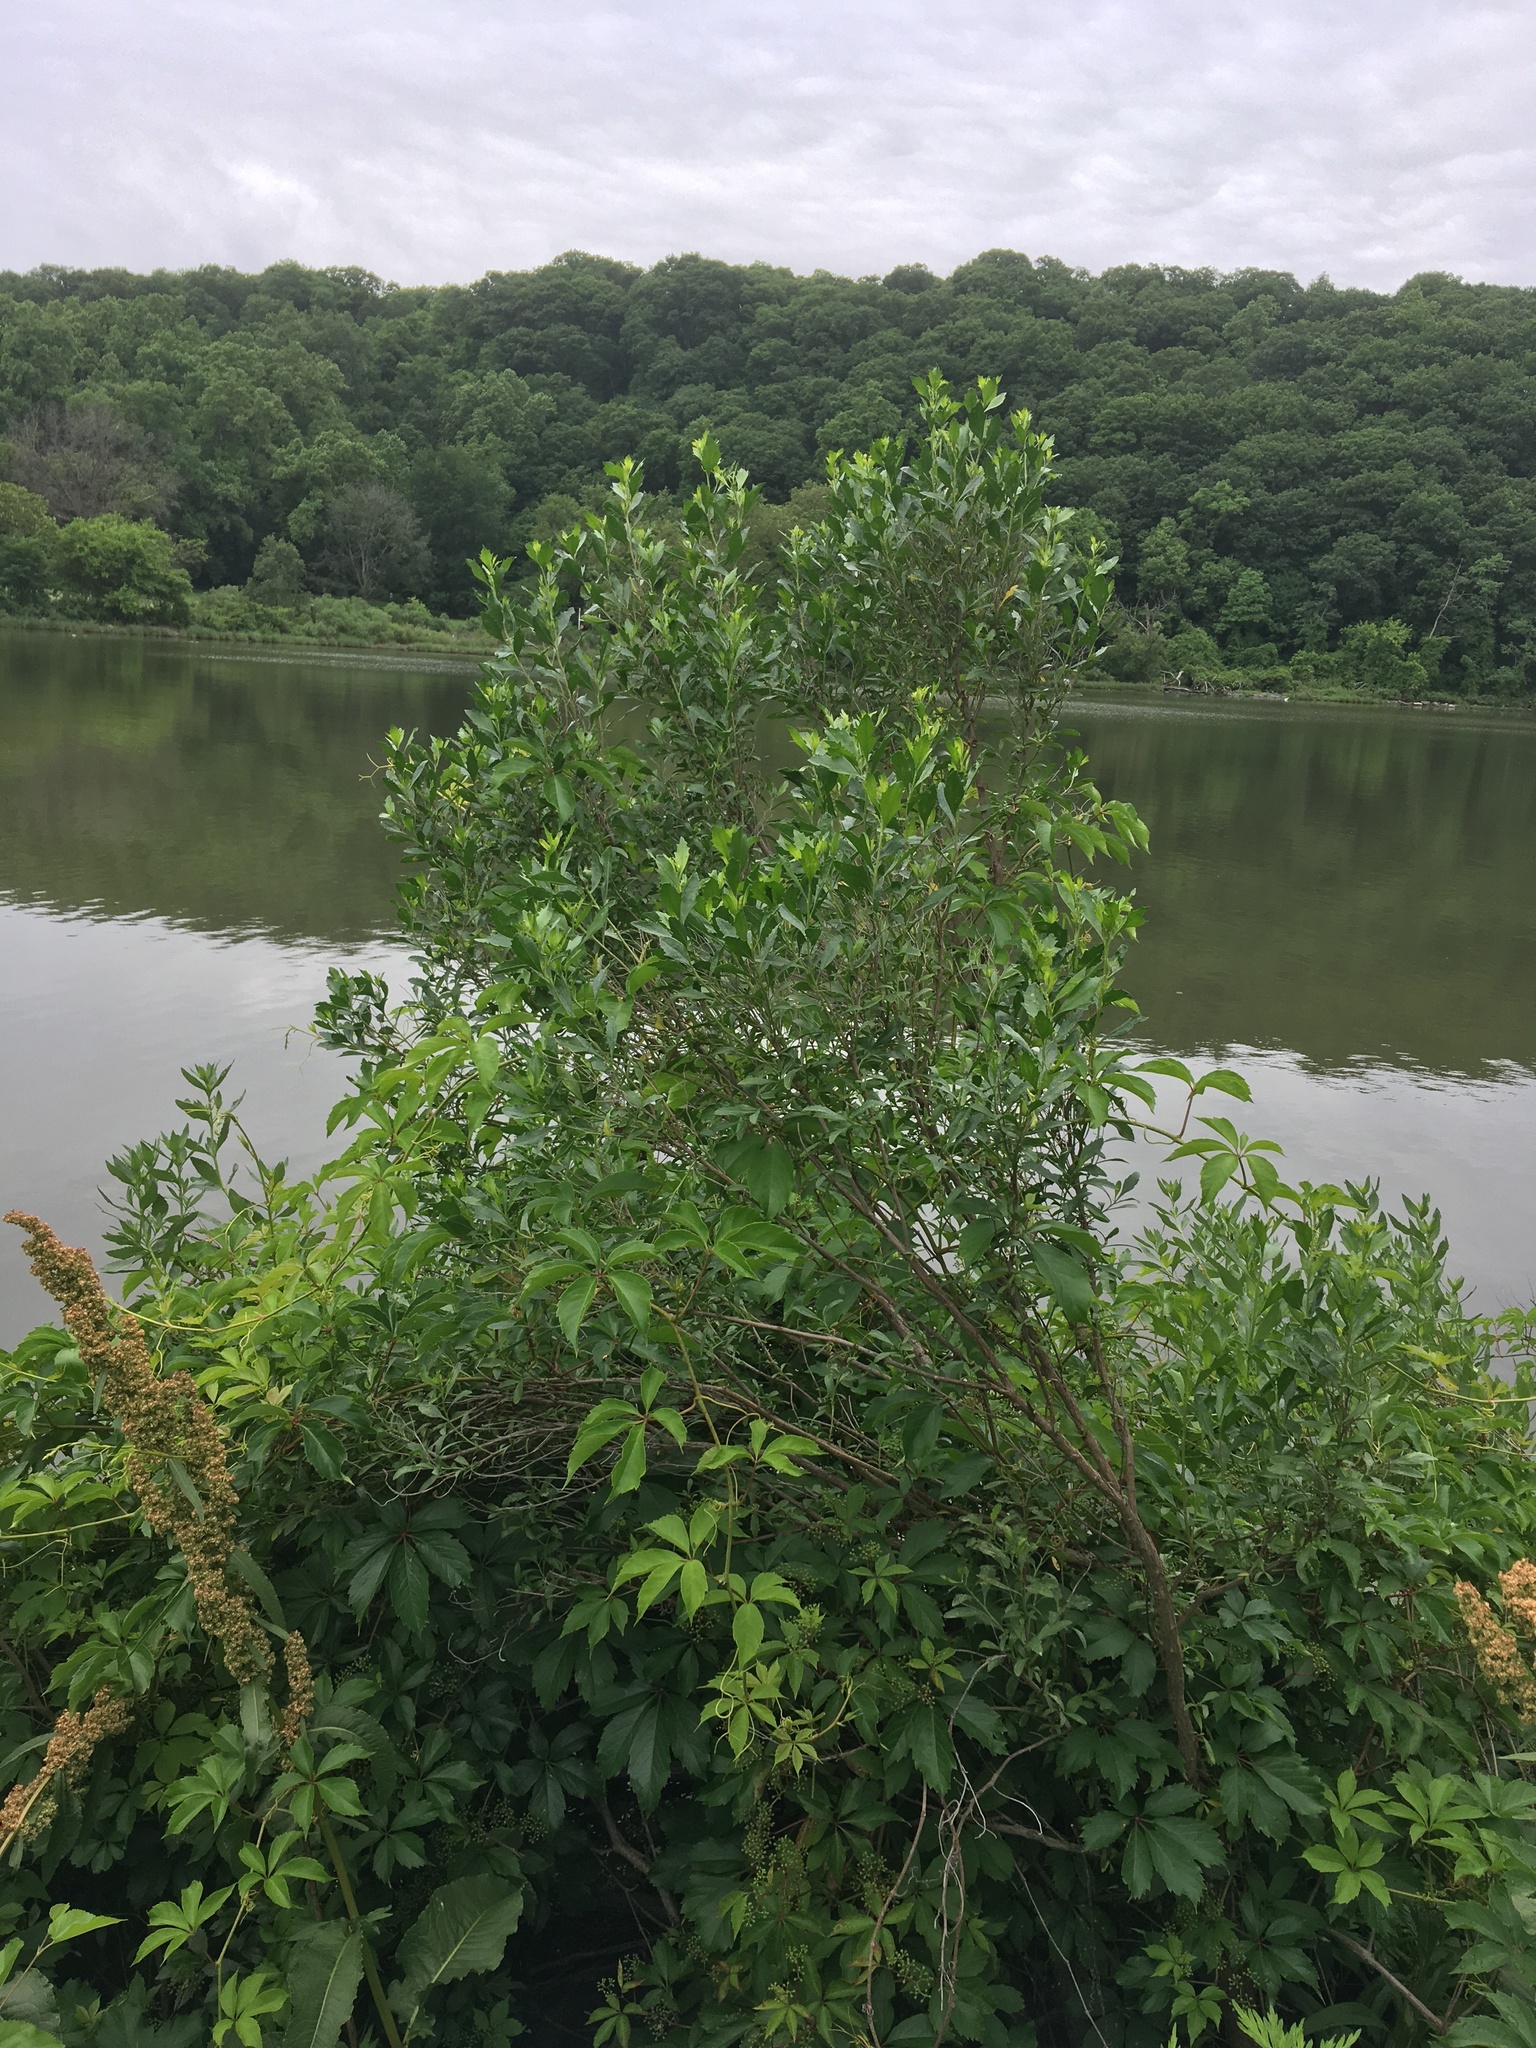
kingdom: Plantae
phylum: Tracheophyta
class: Magnoliopsida
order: Asterales
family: Asteraceae
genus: Baccharis
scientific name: Baccharis halimifolia
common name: Eastern baccharis
